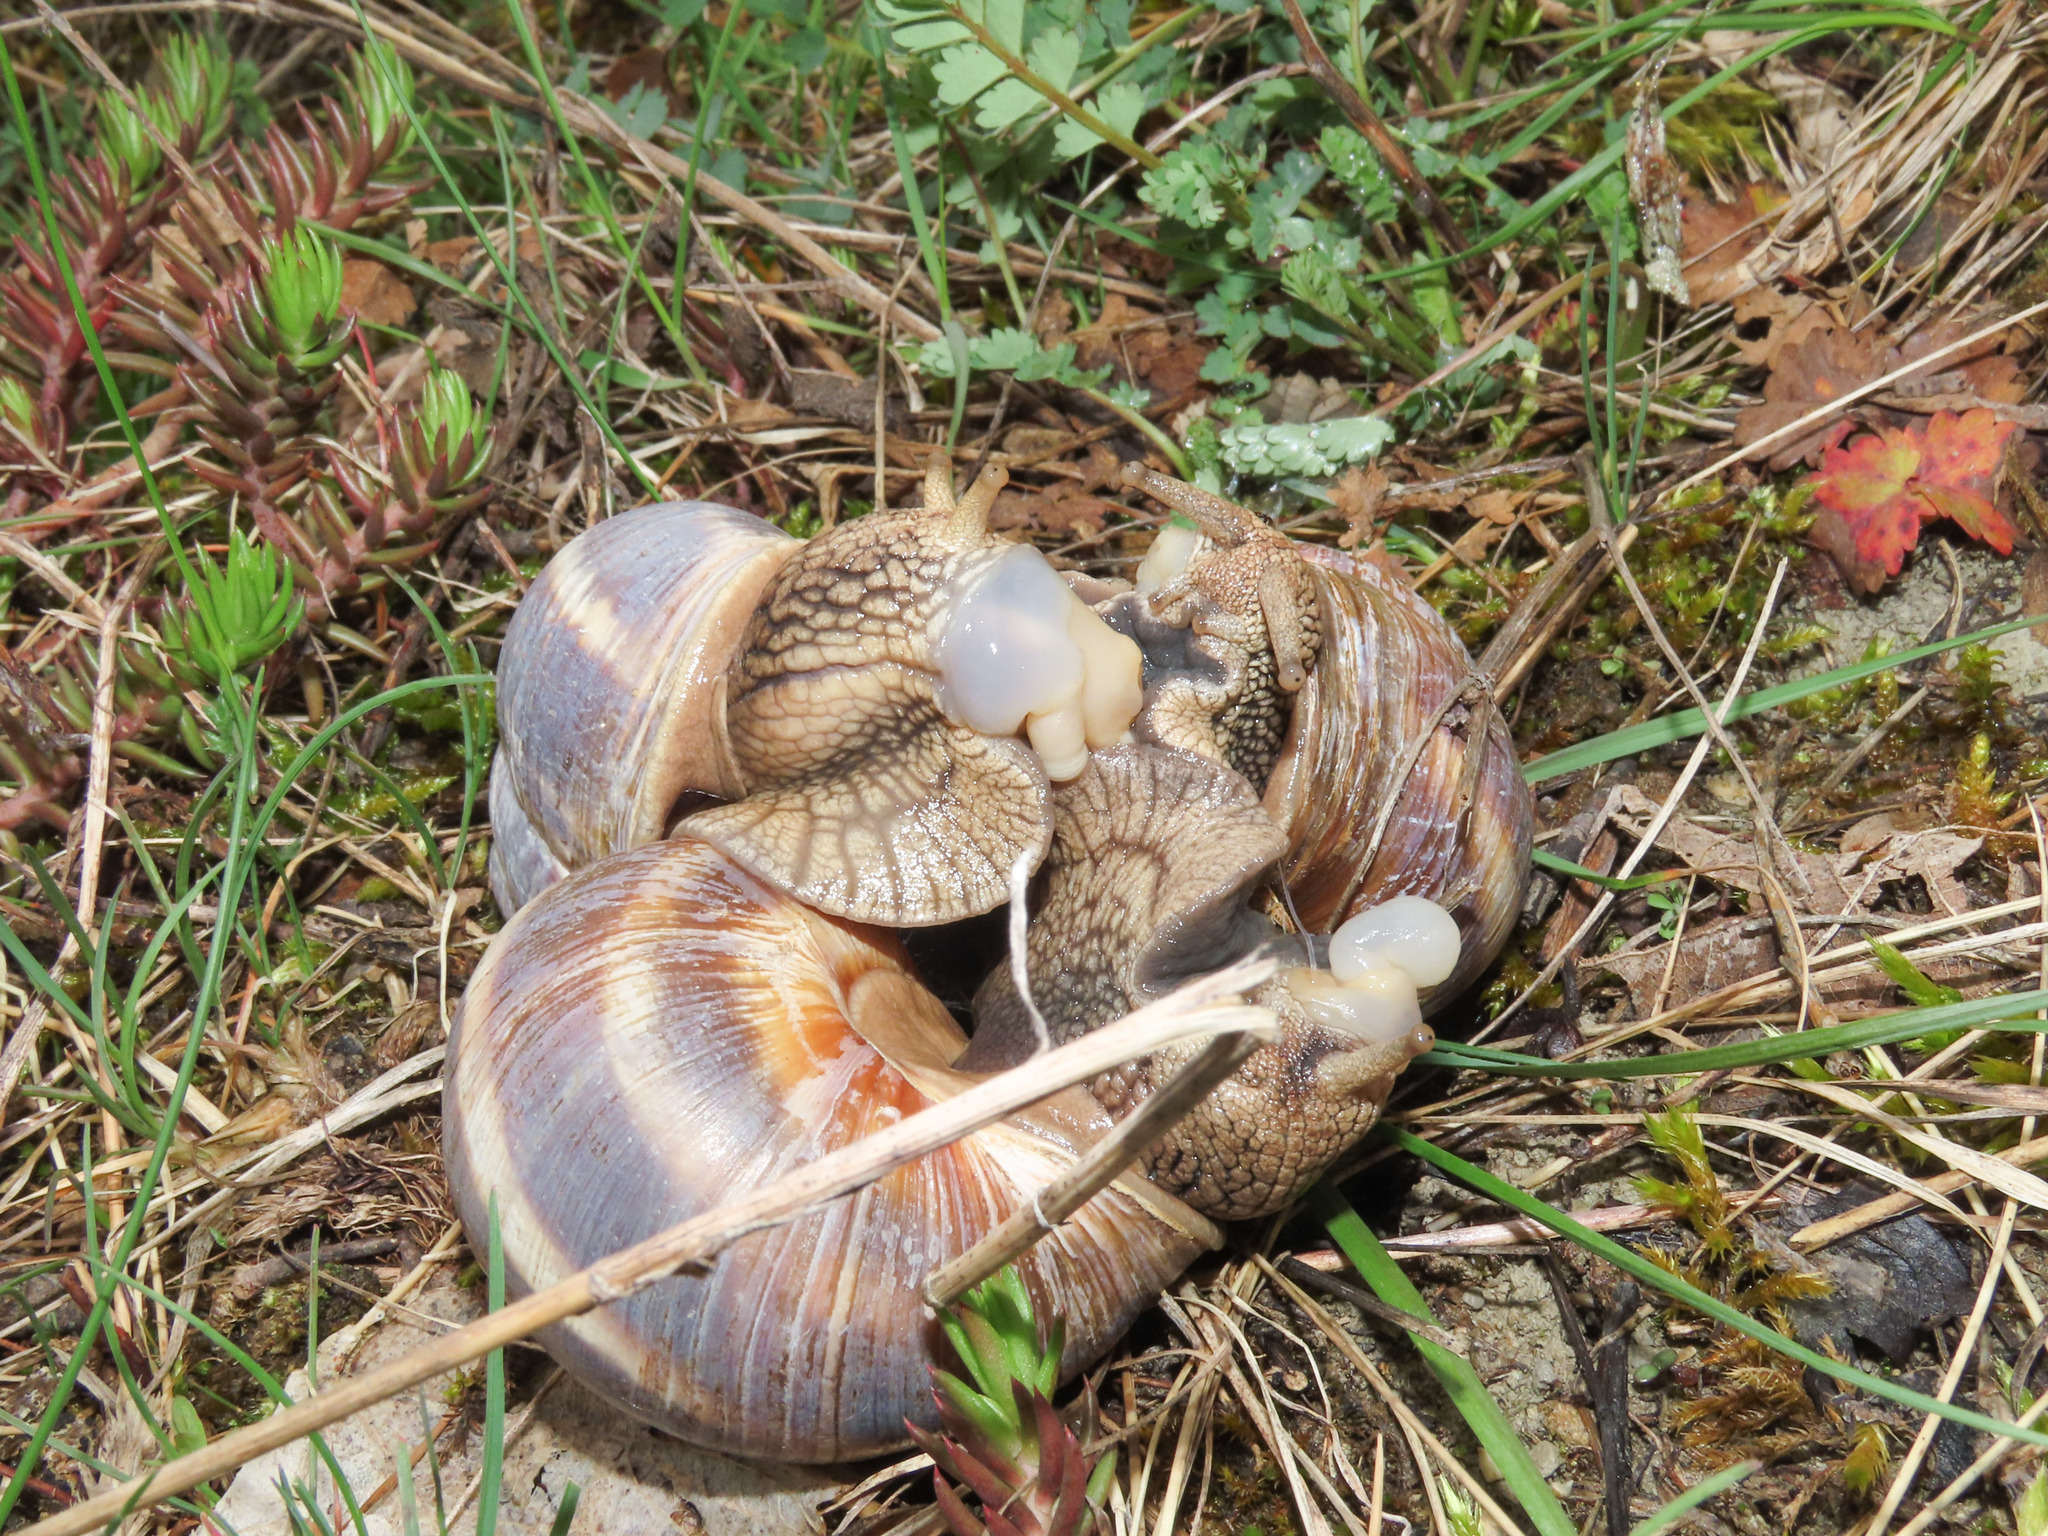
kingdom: Animalia
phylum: Mollusca
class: Gastropoda
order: Stylommatophora
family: Helicidae
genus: Helix
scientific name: Helix straminea
